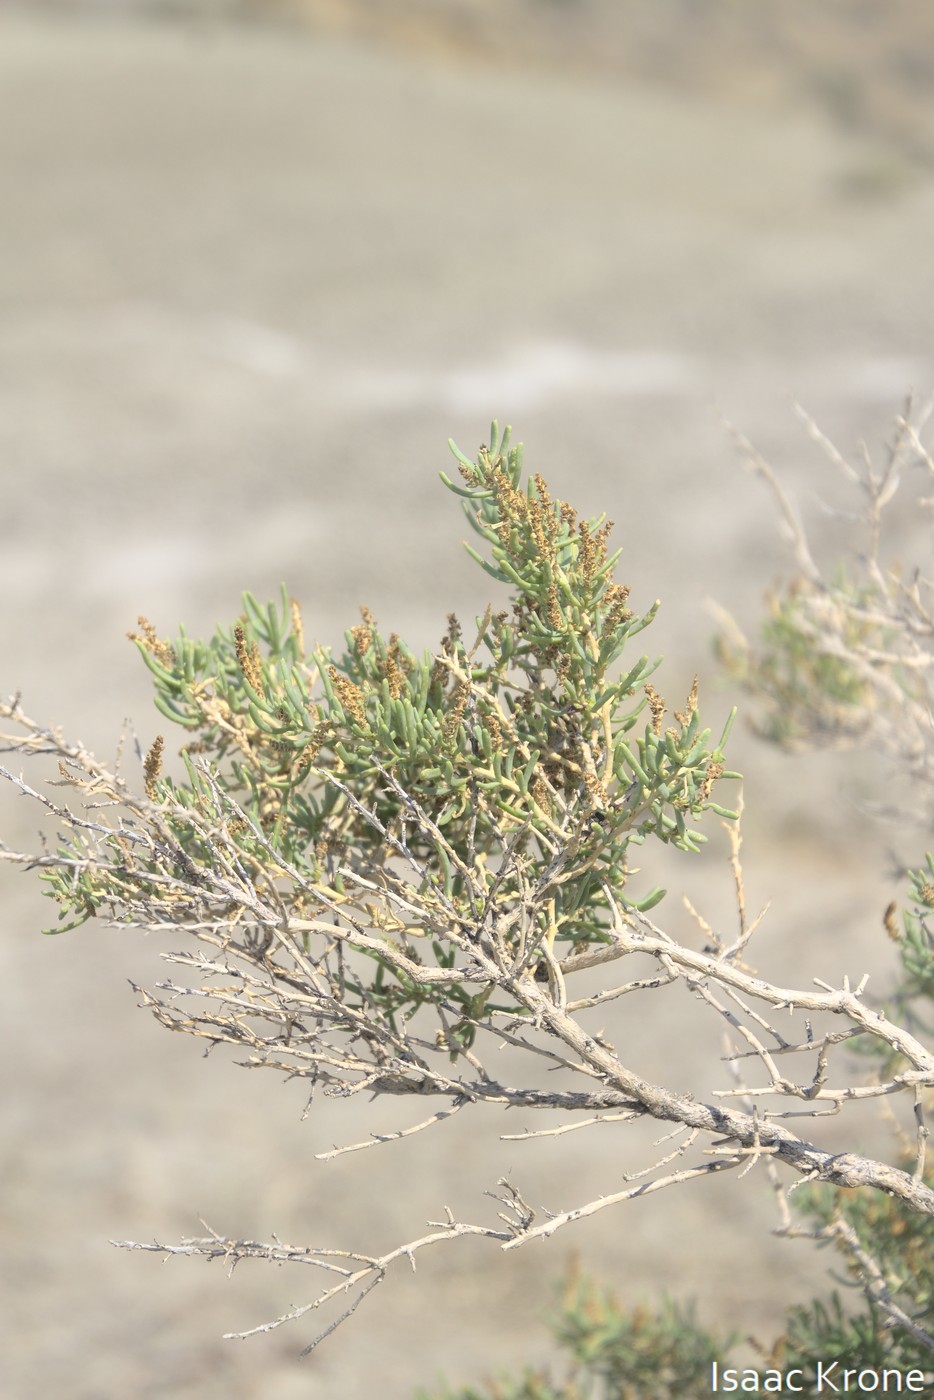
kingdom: Plantae
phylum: Tracheophyta
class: Magnoliopsida
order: Caryophyllales
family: Sarcobataceae
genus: Sarcobatus
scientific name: Sarcobatus vermiculatus
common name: Greasewood
